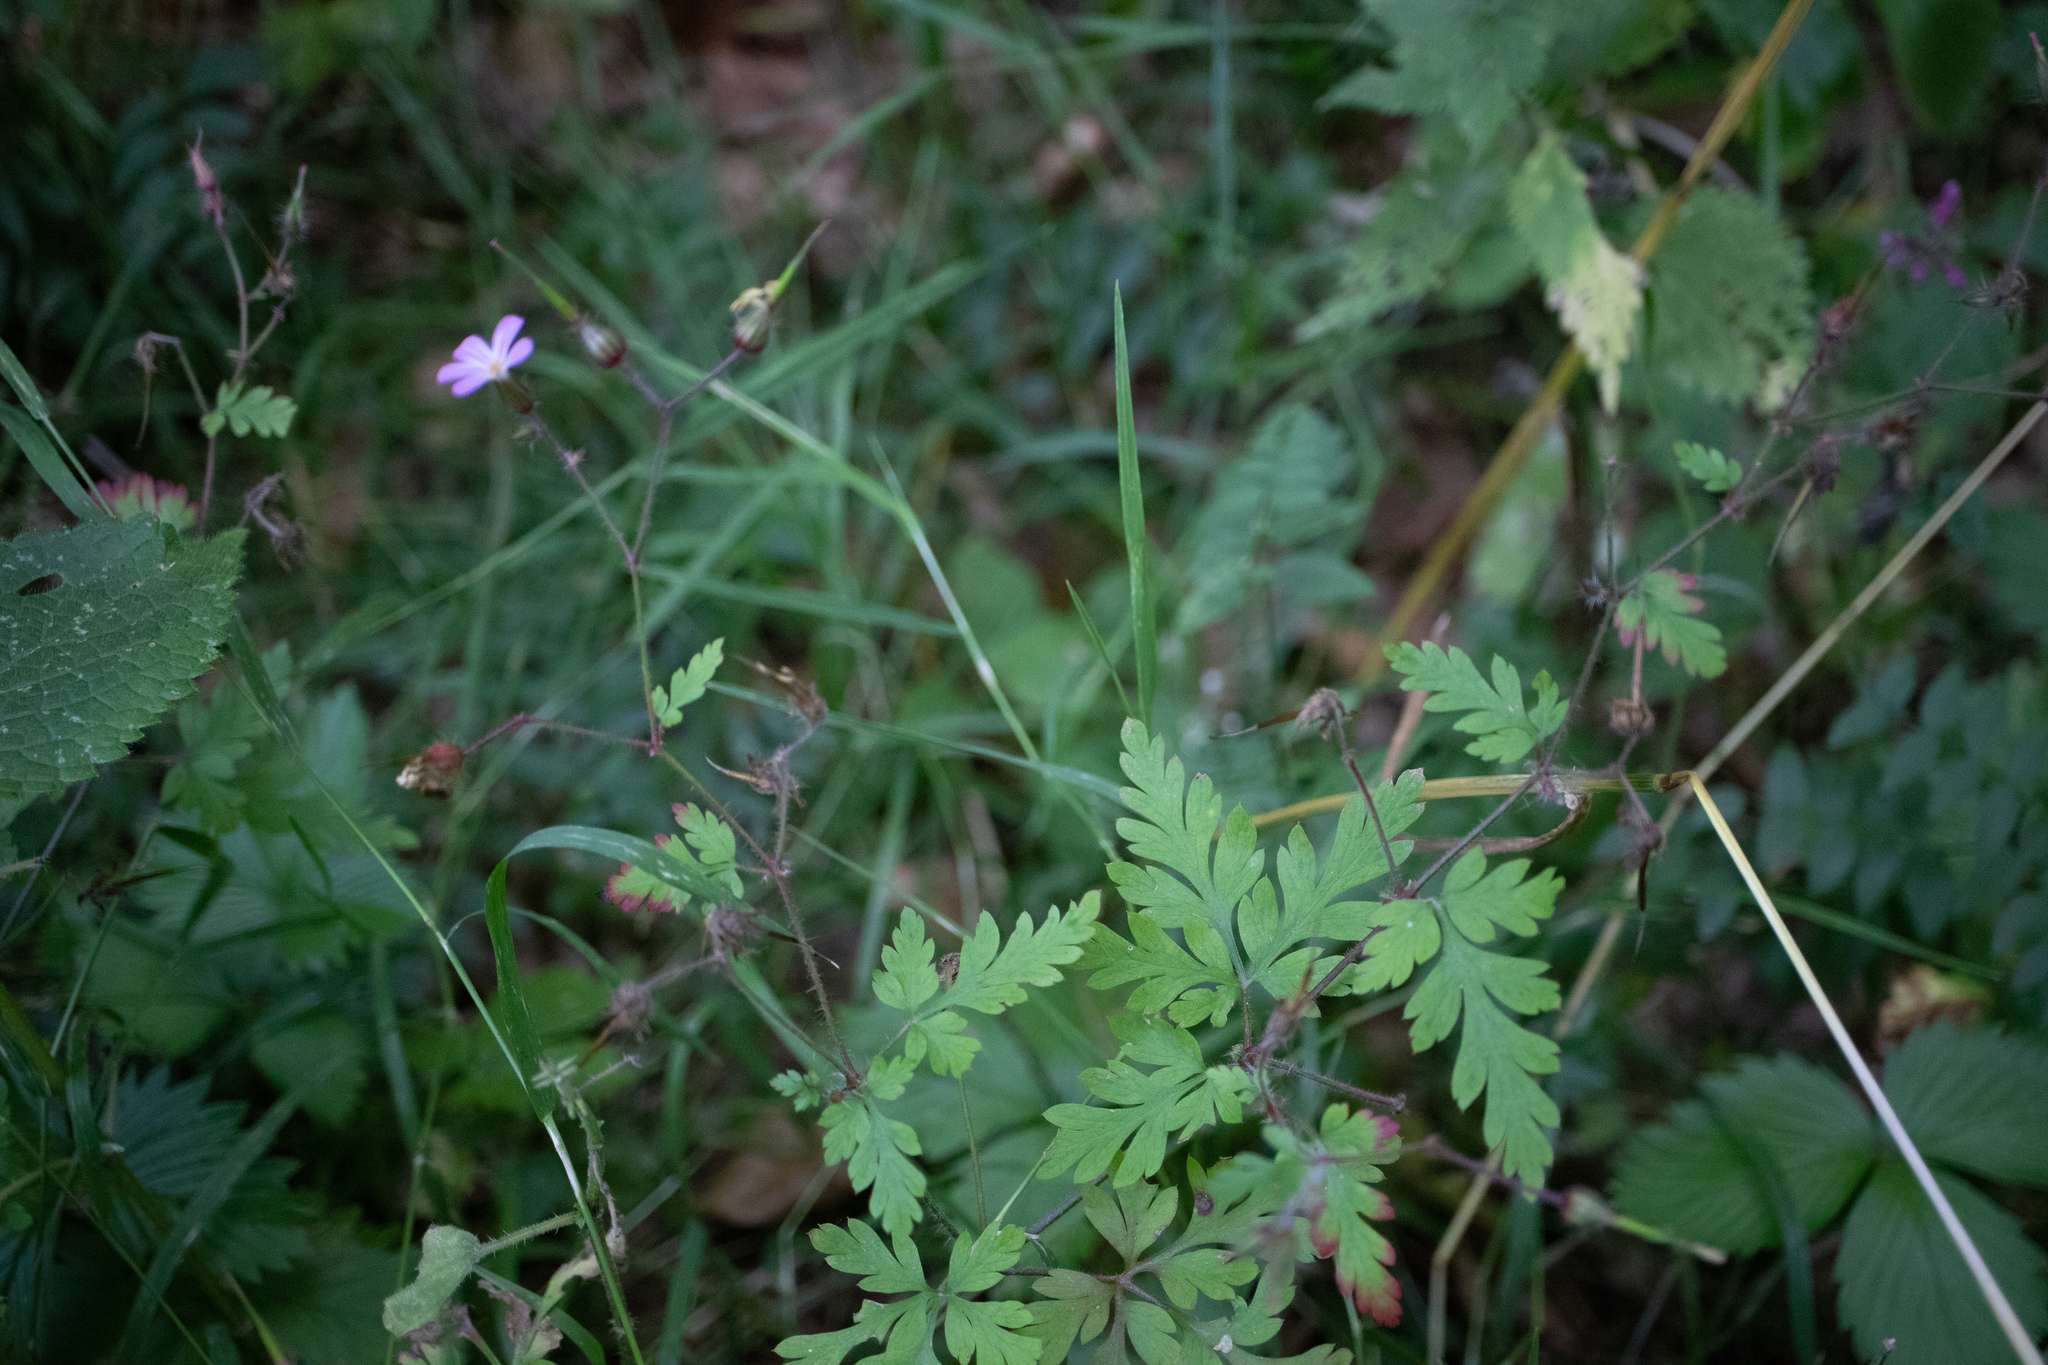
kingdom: Plantae
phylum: Tracheophyta
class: Magnoliopsida
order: Geraniales
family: Geraniaceae
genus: Geranium
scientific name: Geranium robertianum
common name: Herb-robert
